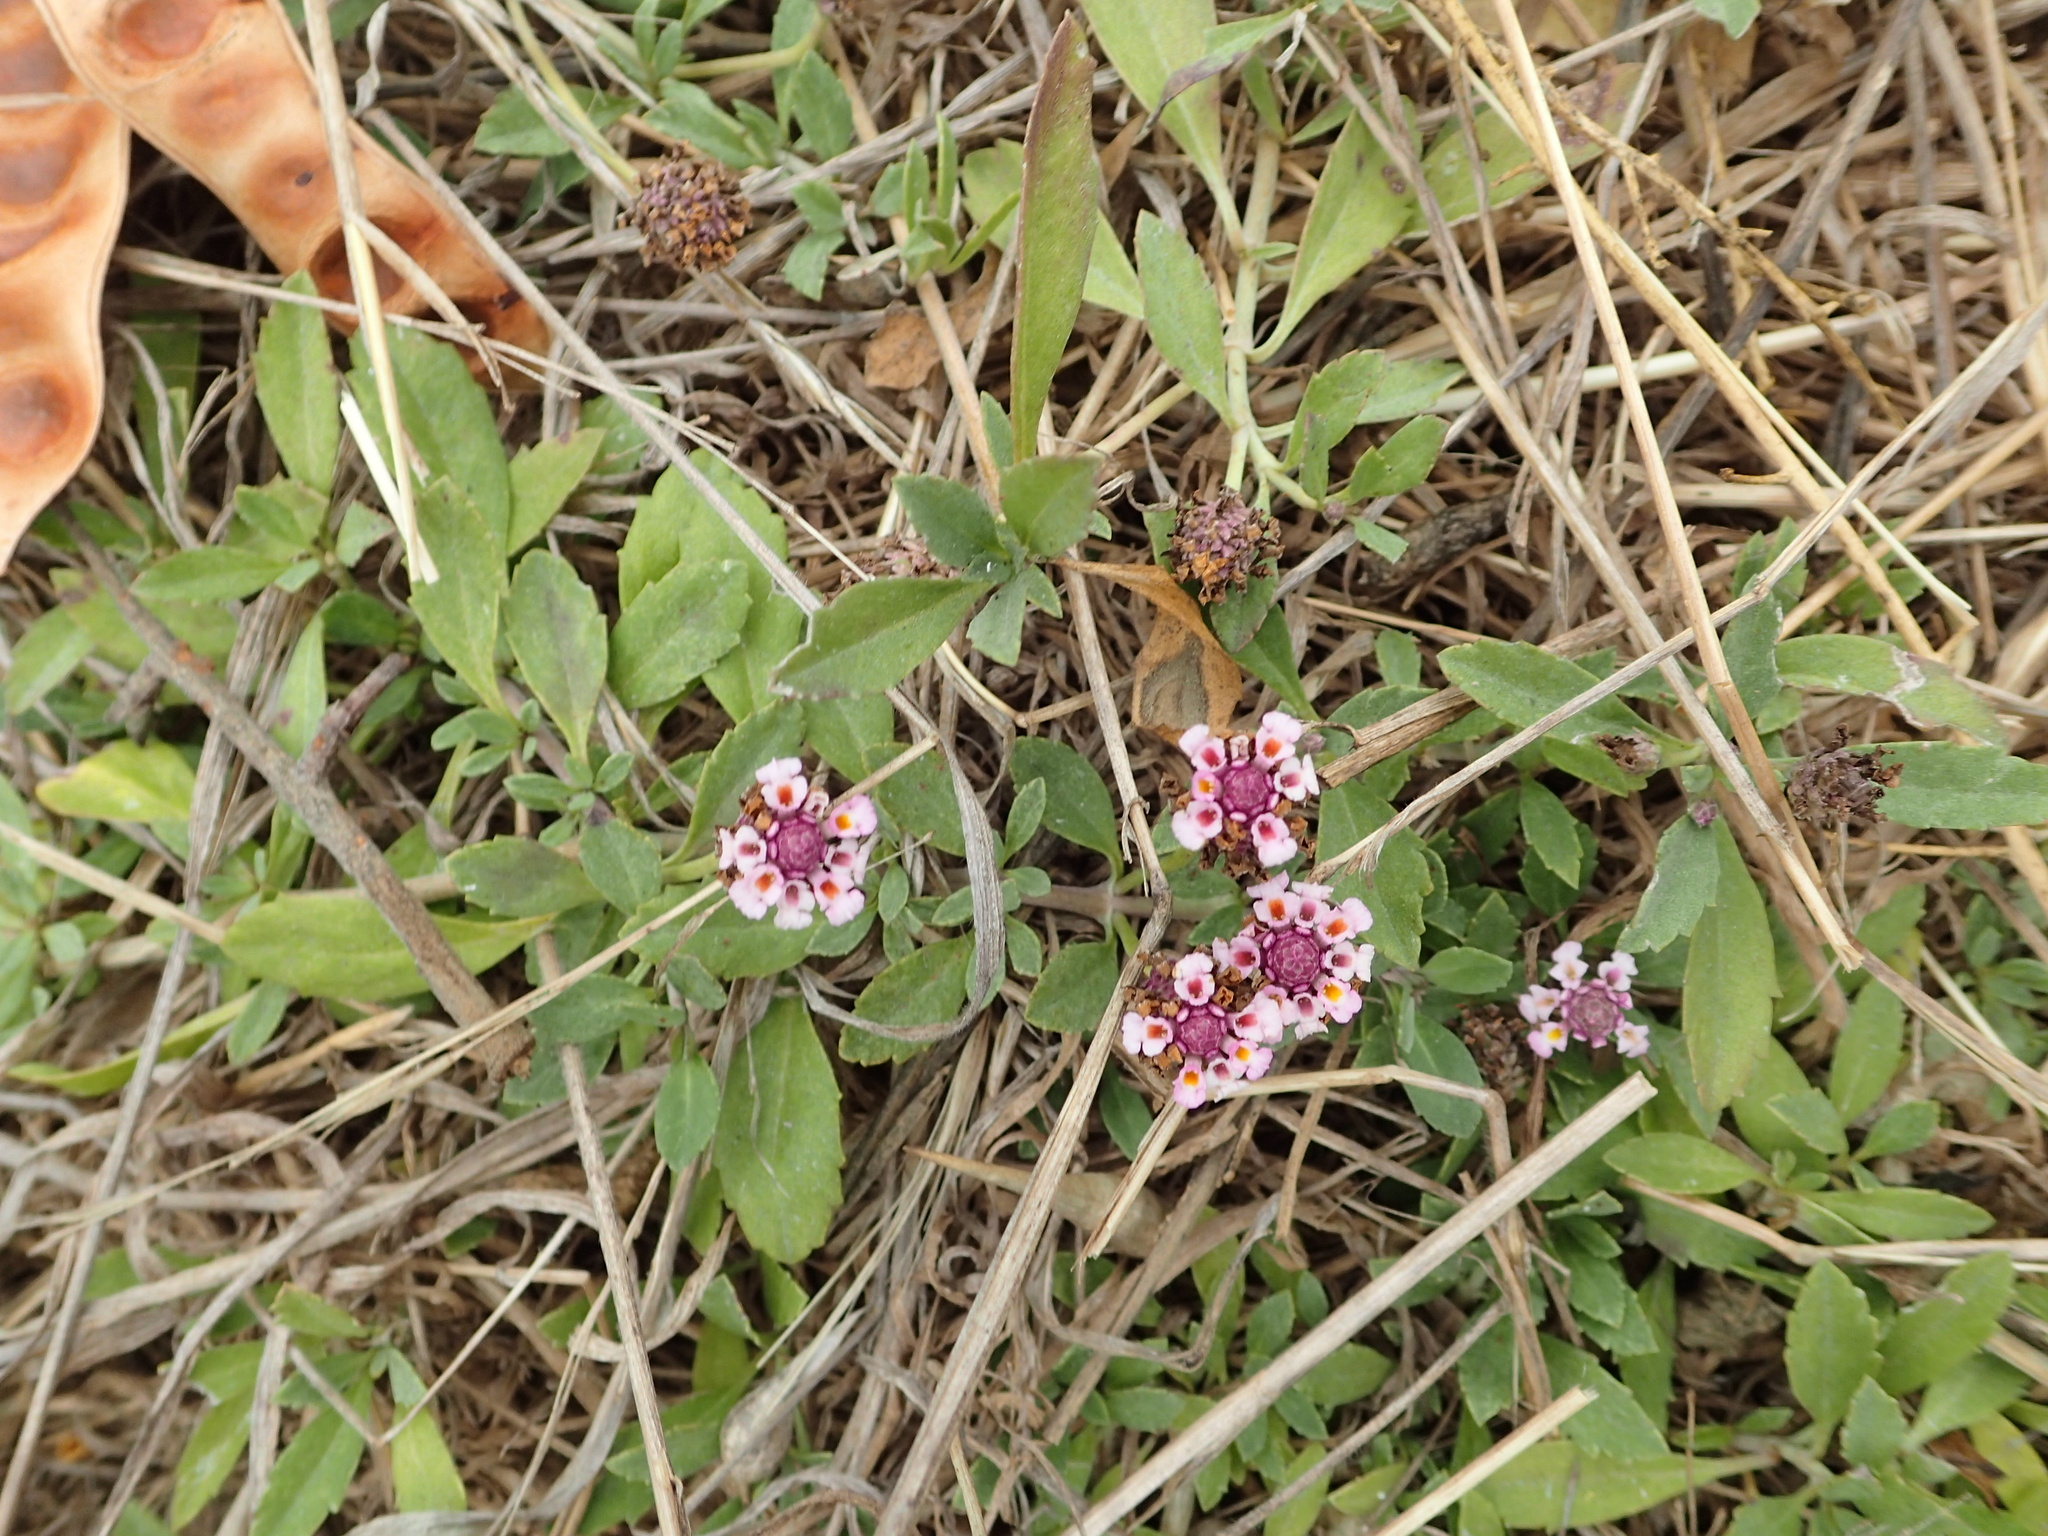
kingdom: Plantae
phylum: Tracheophyta
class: Magnoliopsida
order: Lamiales
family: Verbenaceae
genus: Phyla
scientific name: Phyla nodiflora
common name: Frogfruit
